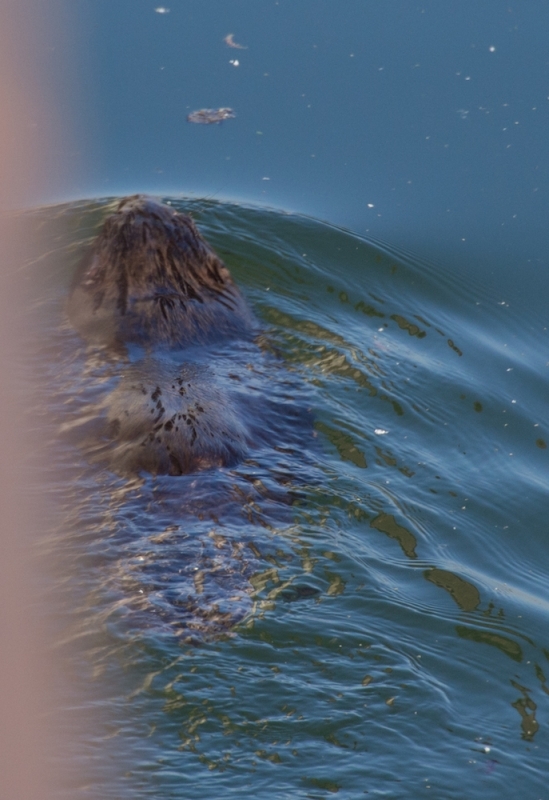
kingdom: Animalia
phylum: Chordata
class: Mammalia
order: Rodentia
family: Castoridae
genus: Castor
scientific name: Castor fiber
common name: Eurasian beaver
